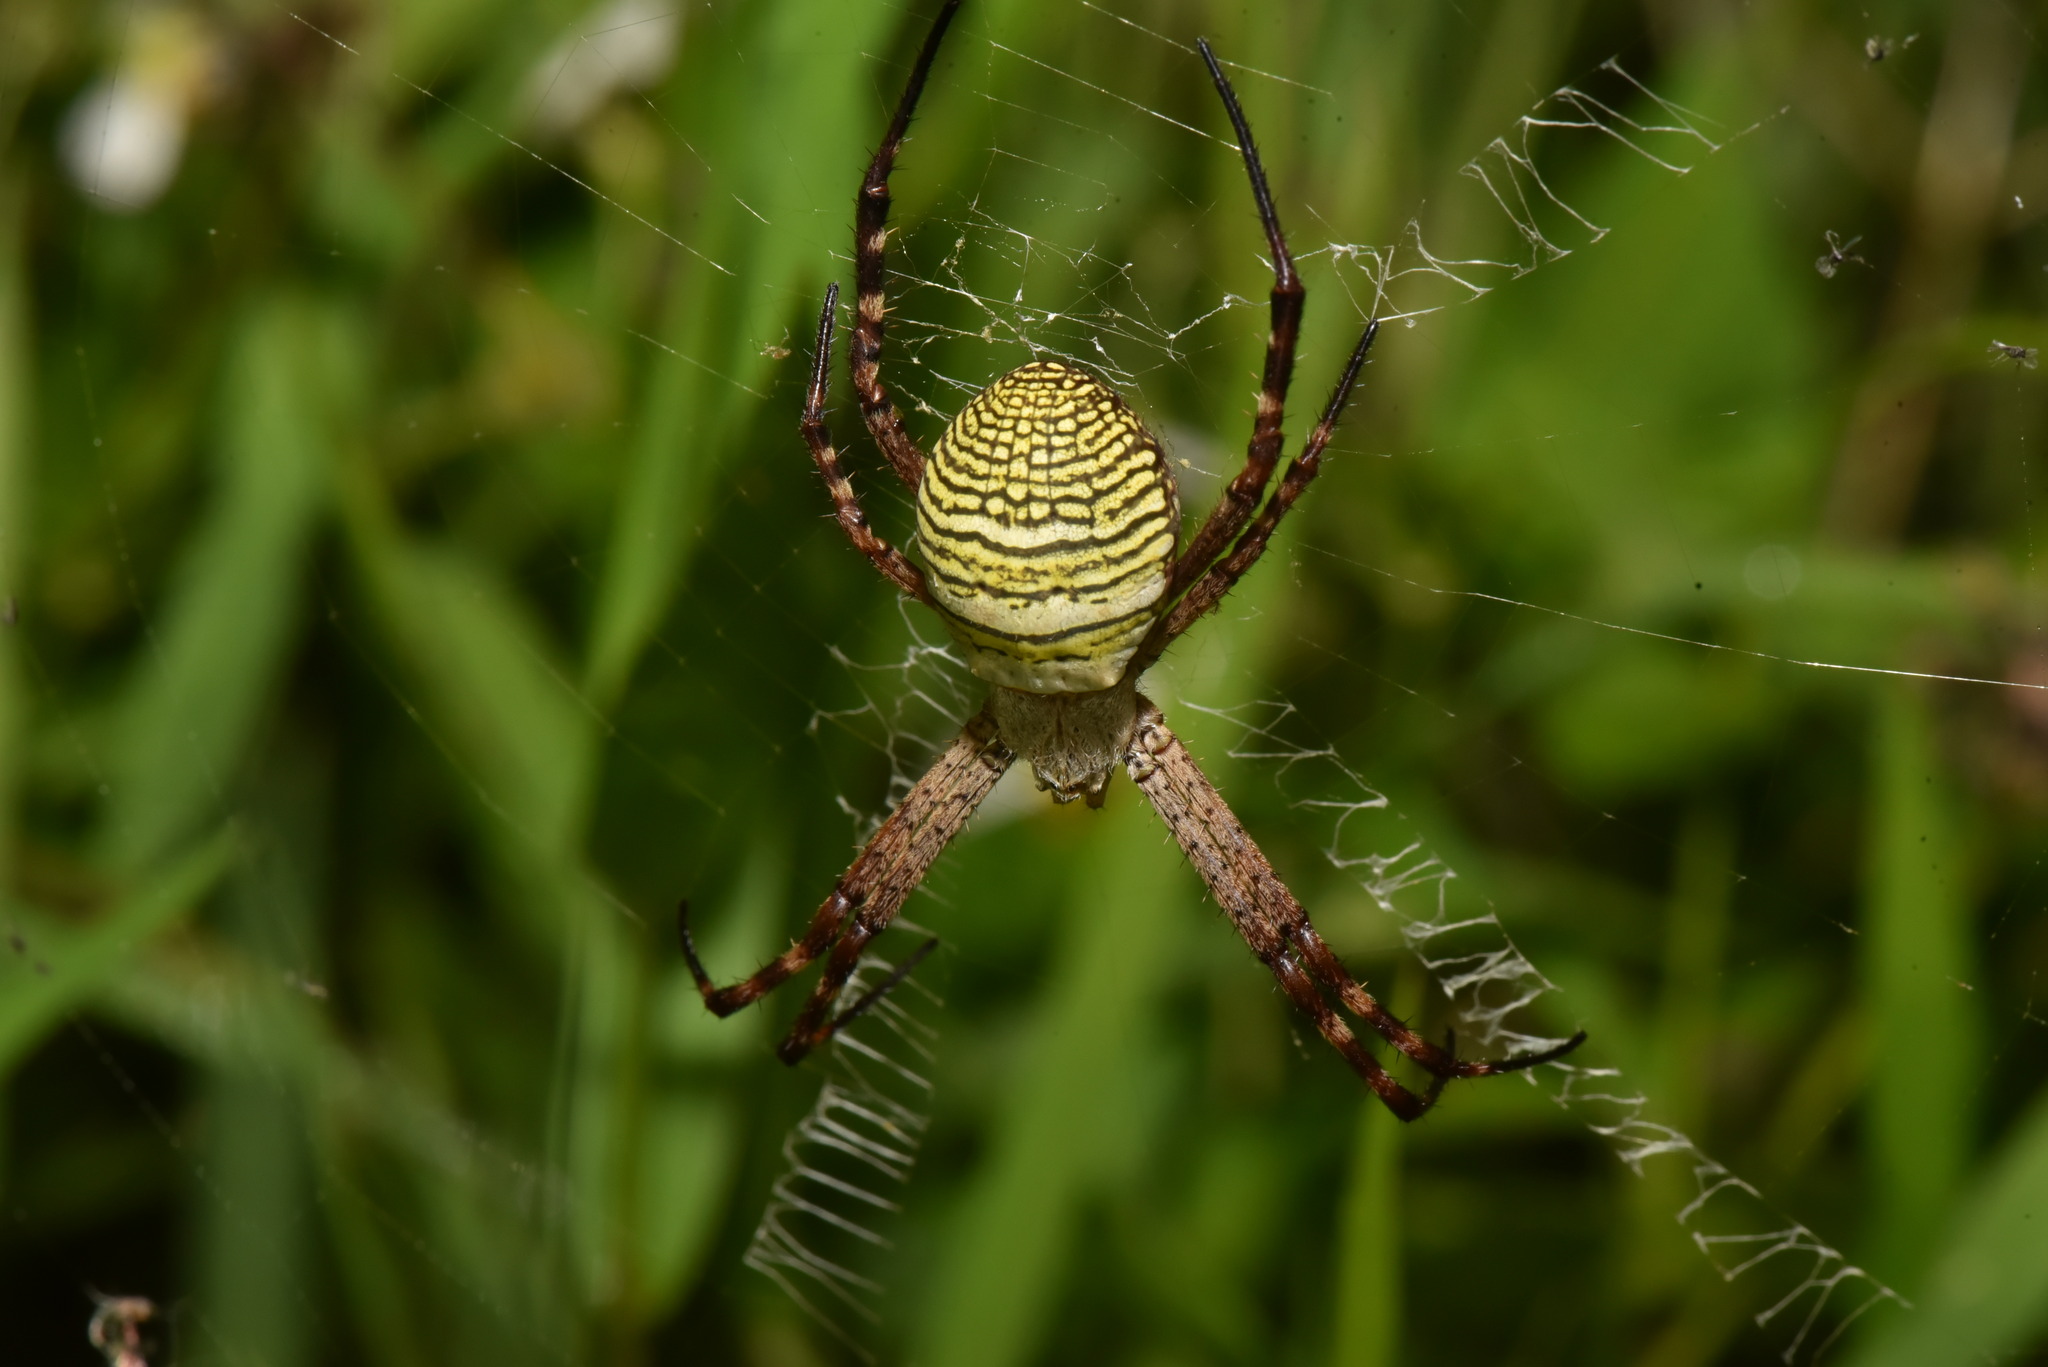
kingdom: Animalia
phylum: Arthropoda
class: Arachnida
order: Araneae
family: Araneidae
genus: Argiope
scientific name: Argiope aemula
